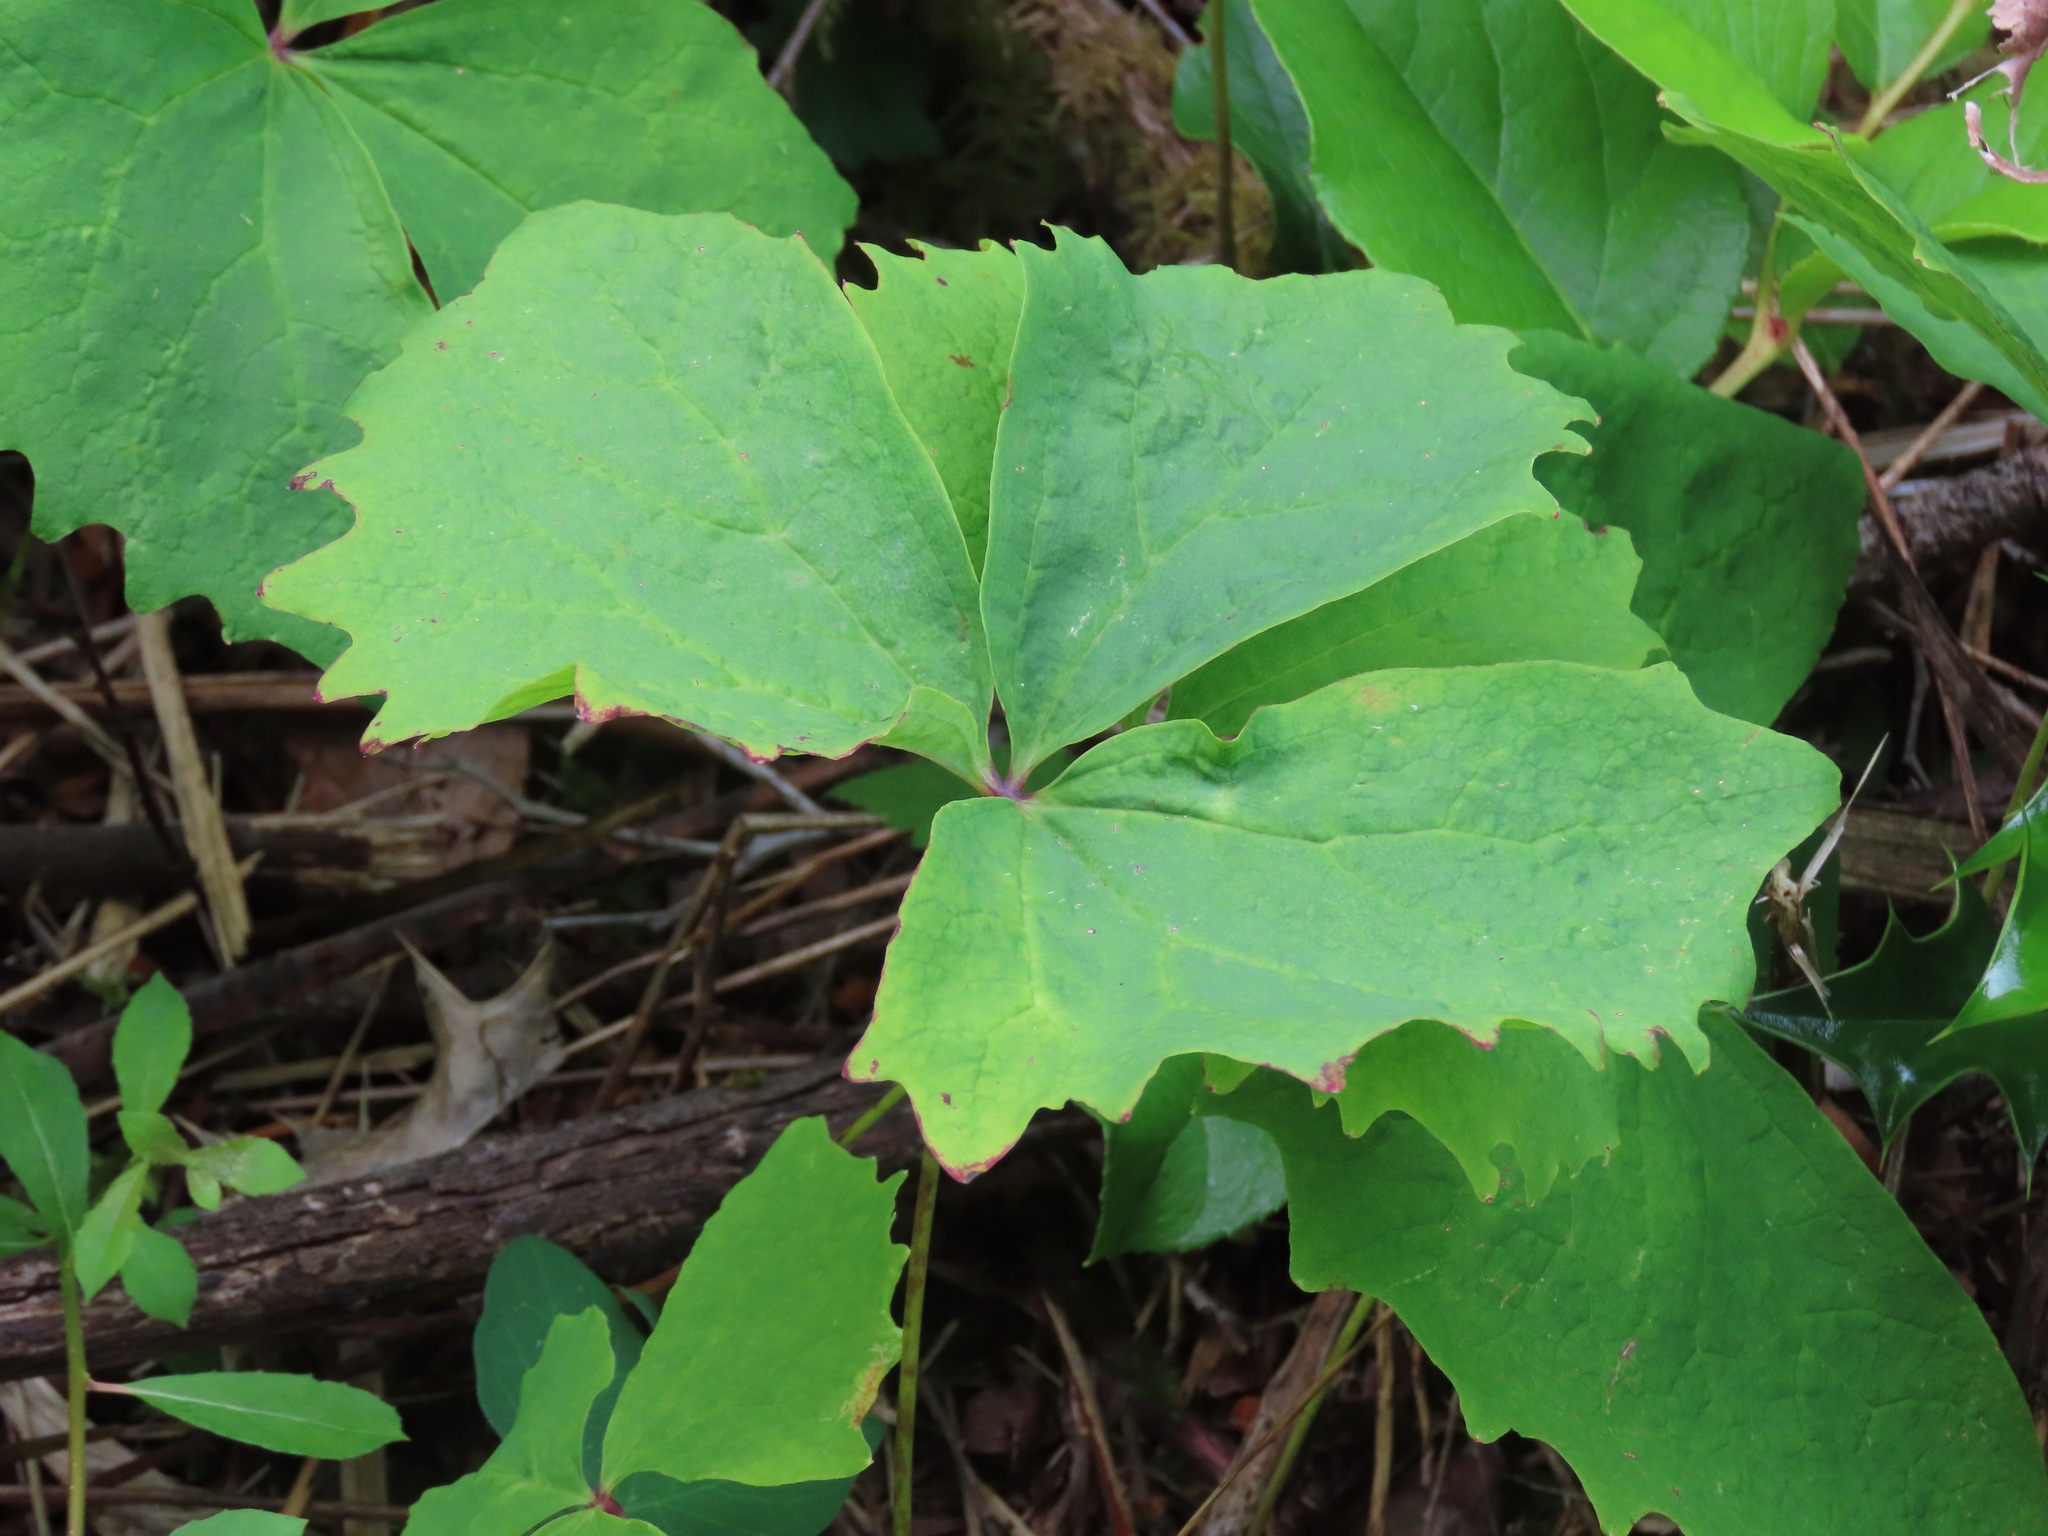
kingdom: Plantae
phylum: Tracheophyta
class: Magnoliopsida
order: Ranunculales
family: Berberidaceae
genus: Achlys
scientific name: Achlys triphylla
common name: Vanilla-leaf
